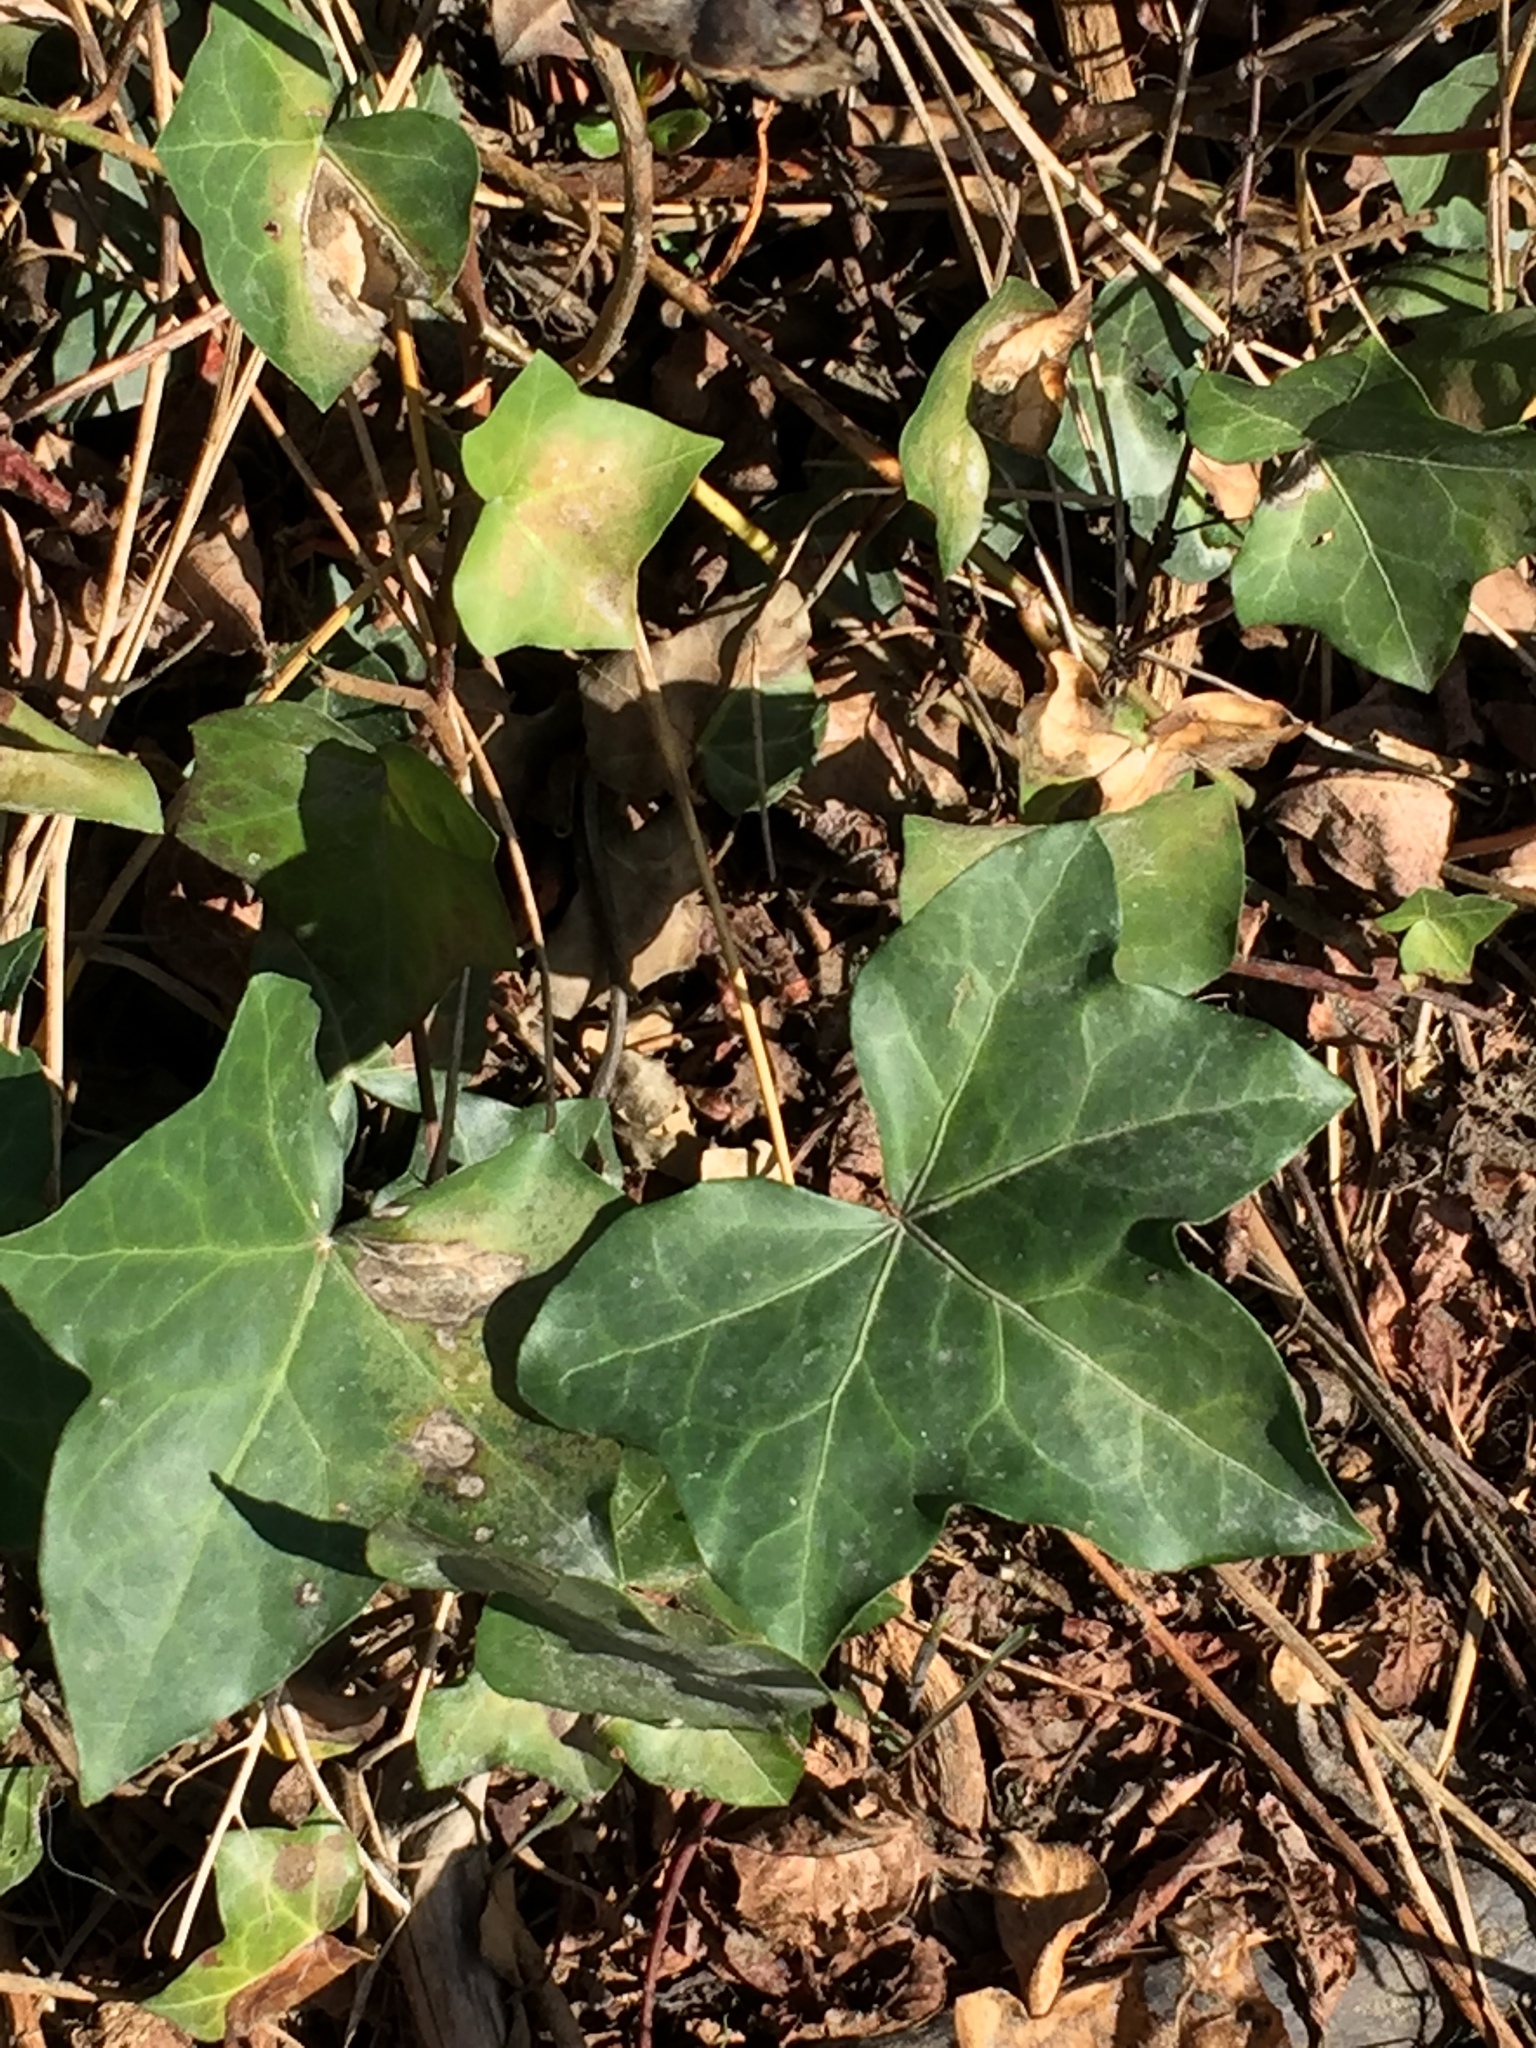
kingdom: Plantae
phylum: Tracheophyta
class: Magnoliopsida
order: Apiales
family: Araliaceae
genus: Hedera
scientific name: Hedera helix
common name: Ivy
